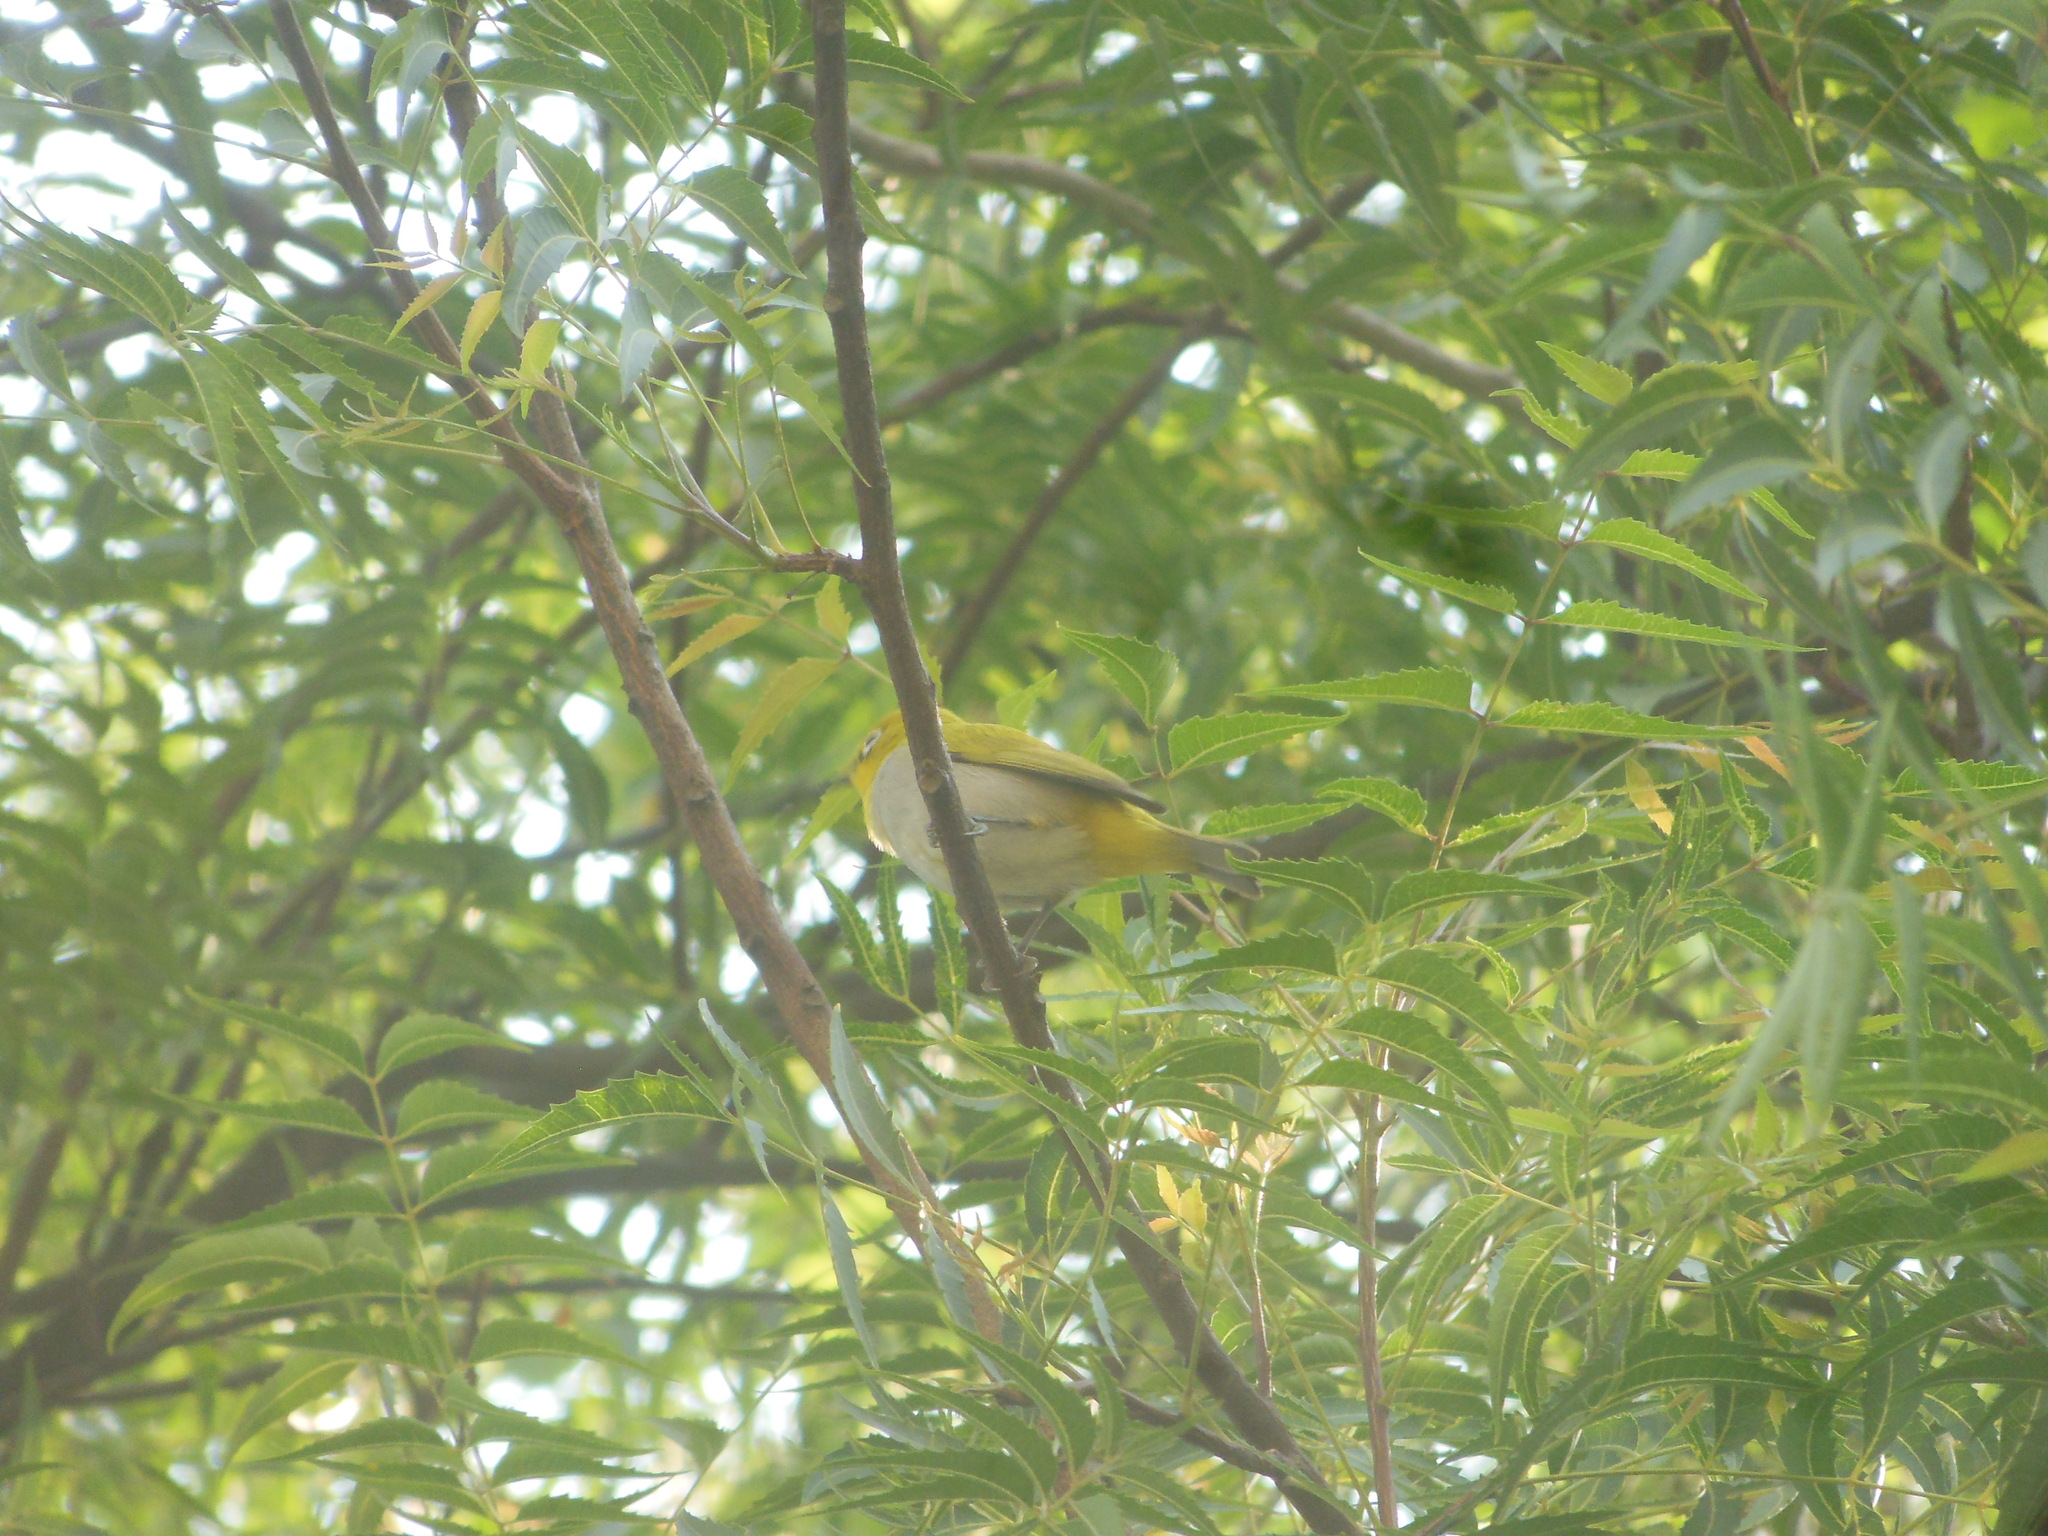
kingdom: Animalia
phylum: Chordata
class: Aves
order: Passeriformes
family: Zosteropidae
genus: Zosterops
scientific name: Zosterops palpebrosus
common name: Oriental white-eye
